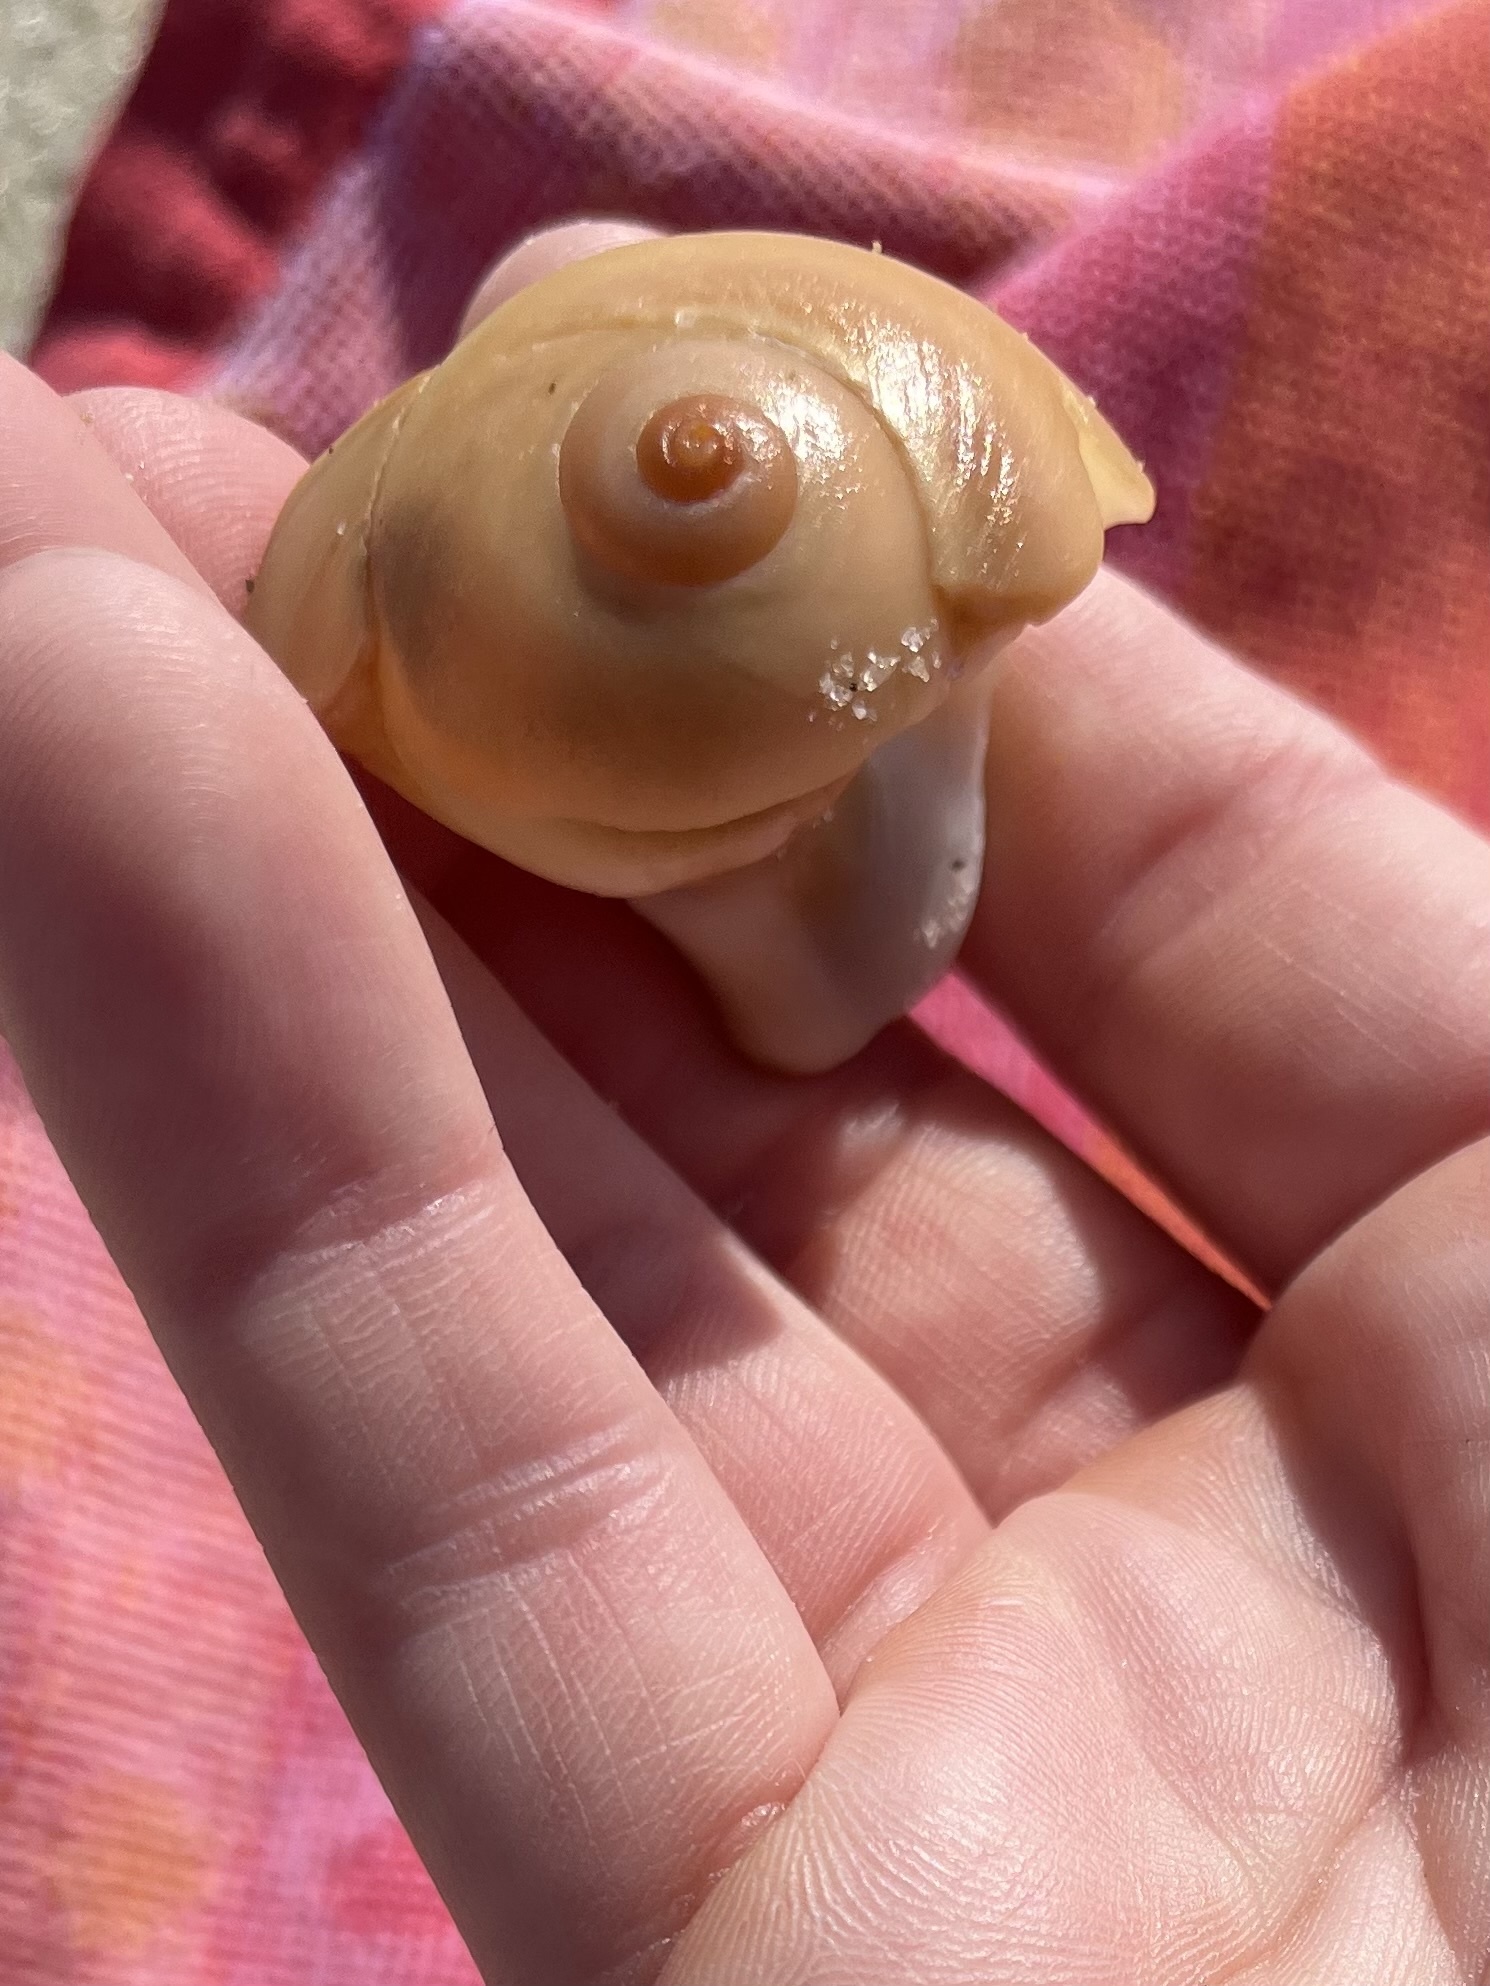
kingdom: Animalia
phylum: Mollusca
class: Gastropoda
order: Littorinimorpha
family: Naticidae
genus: Neverita
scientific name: Neverita duplicata
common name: Lobed moonsnail
